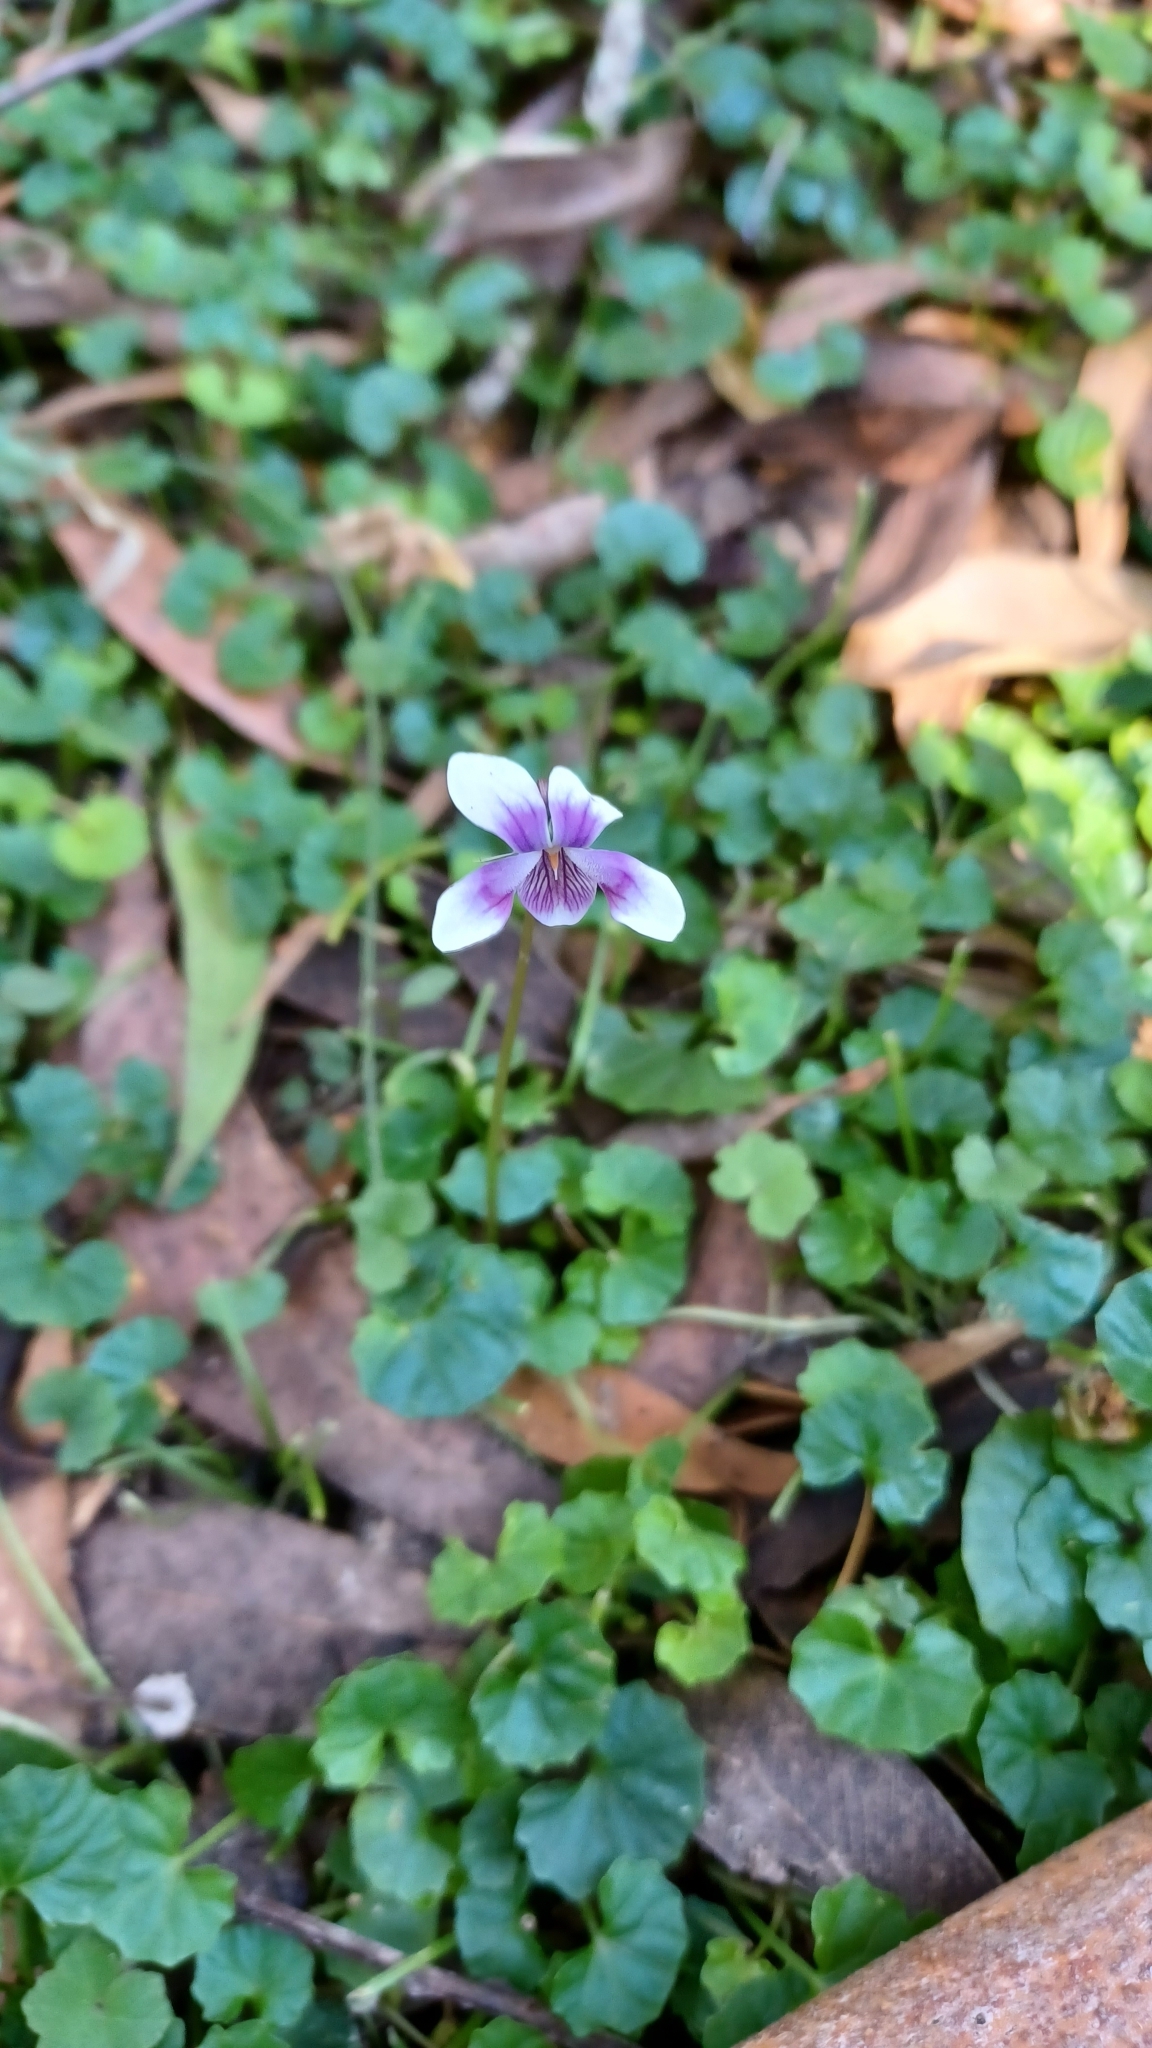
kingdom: Plantae
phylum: Tracheophyta
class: Magnoliopsida
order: Malpighiales
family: Violaceae
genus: Viola
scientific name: Viola banksii
